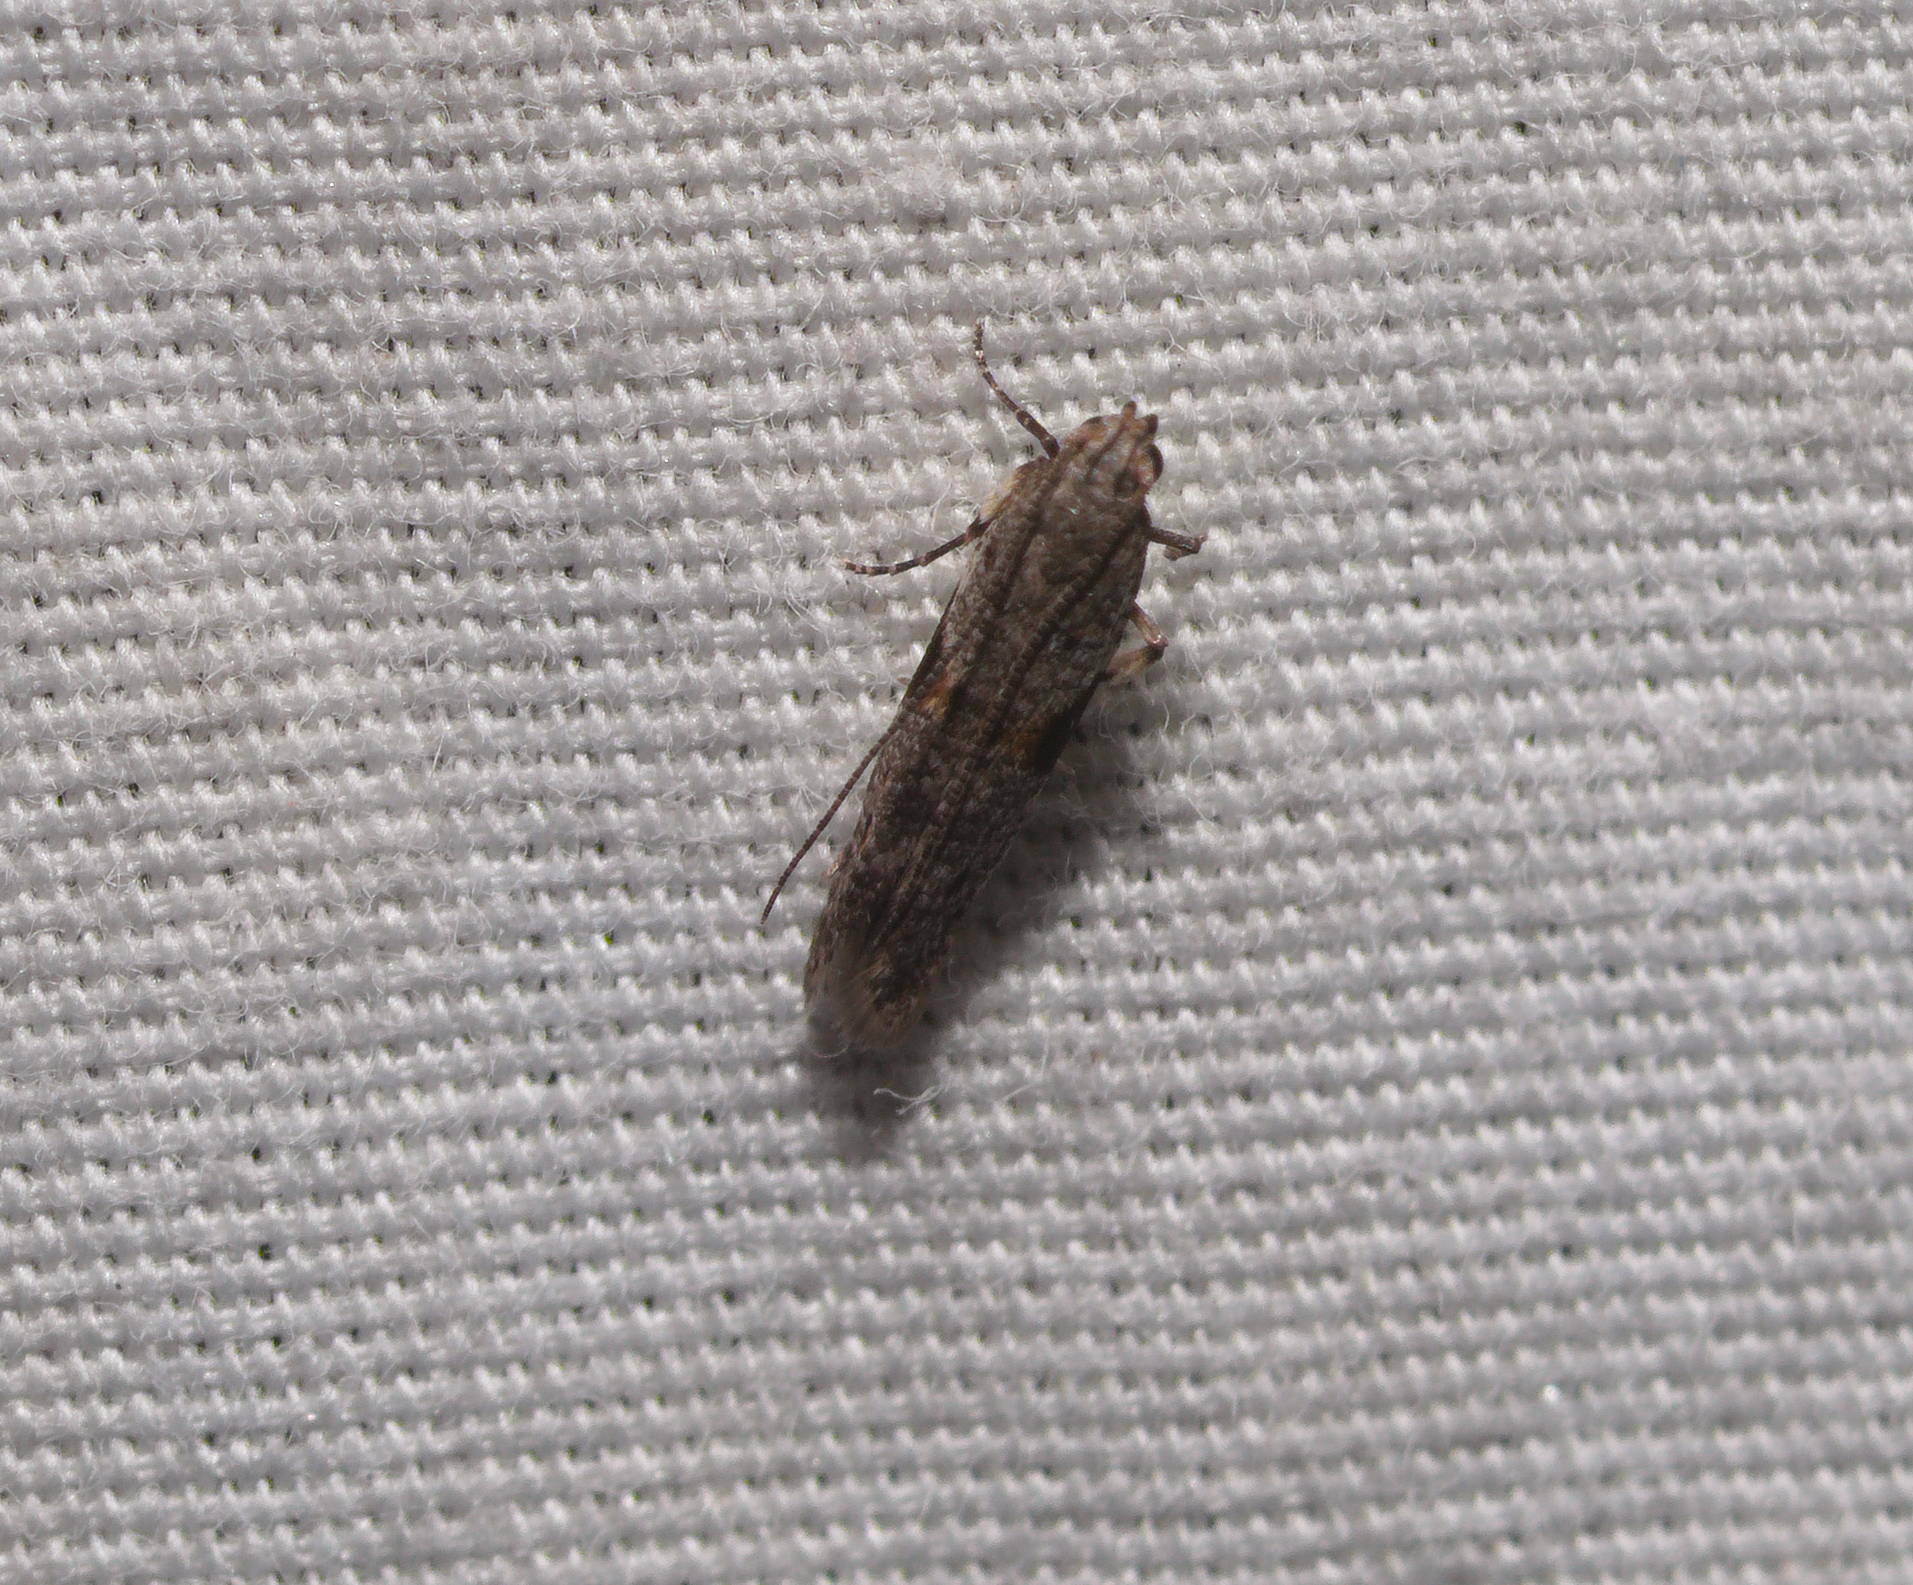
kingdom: Animalia
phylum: Arthropoda
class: Insecta
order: Lepidoptera
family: Gelechiidae
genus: Merimnetria
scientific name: Merimnetria elegantior
